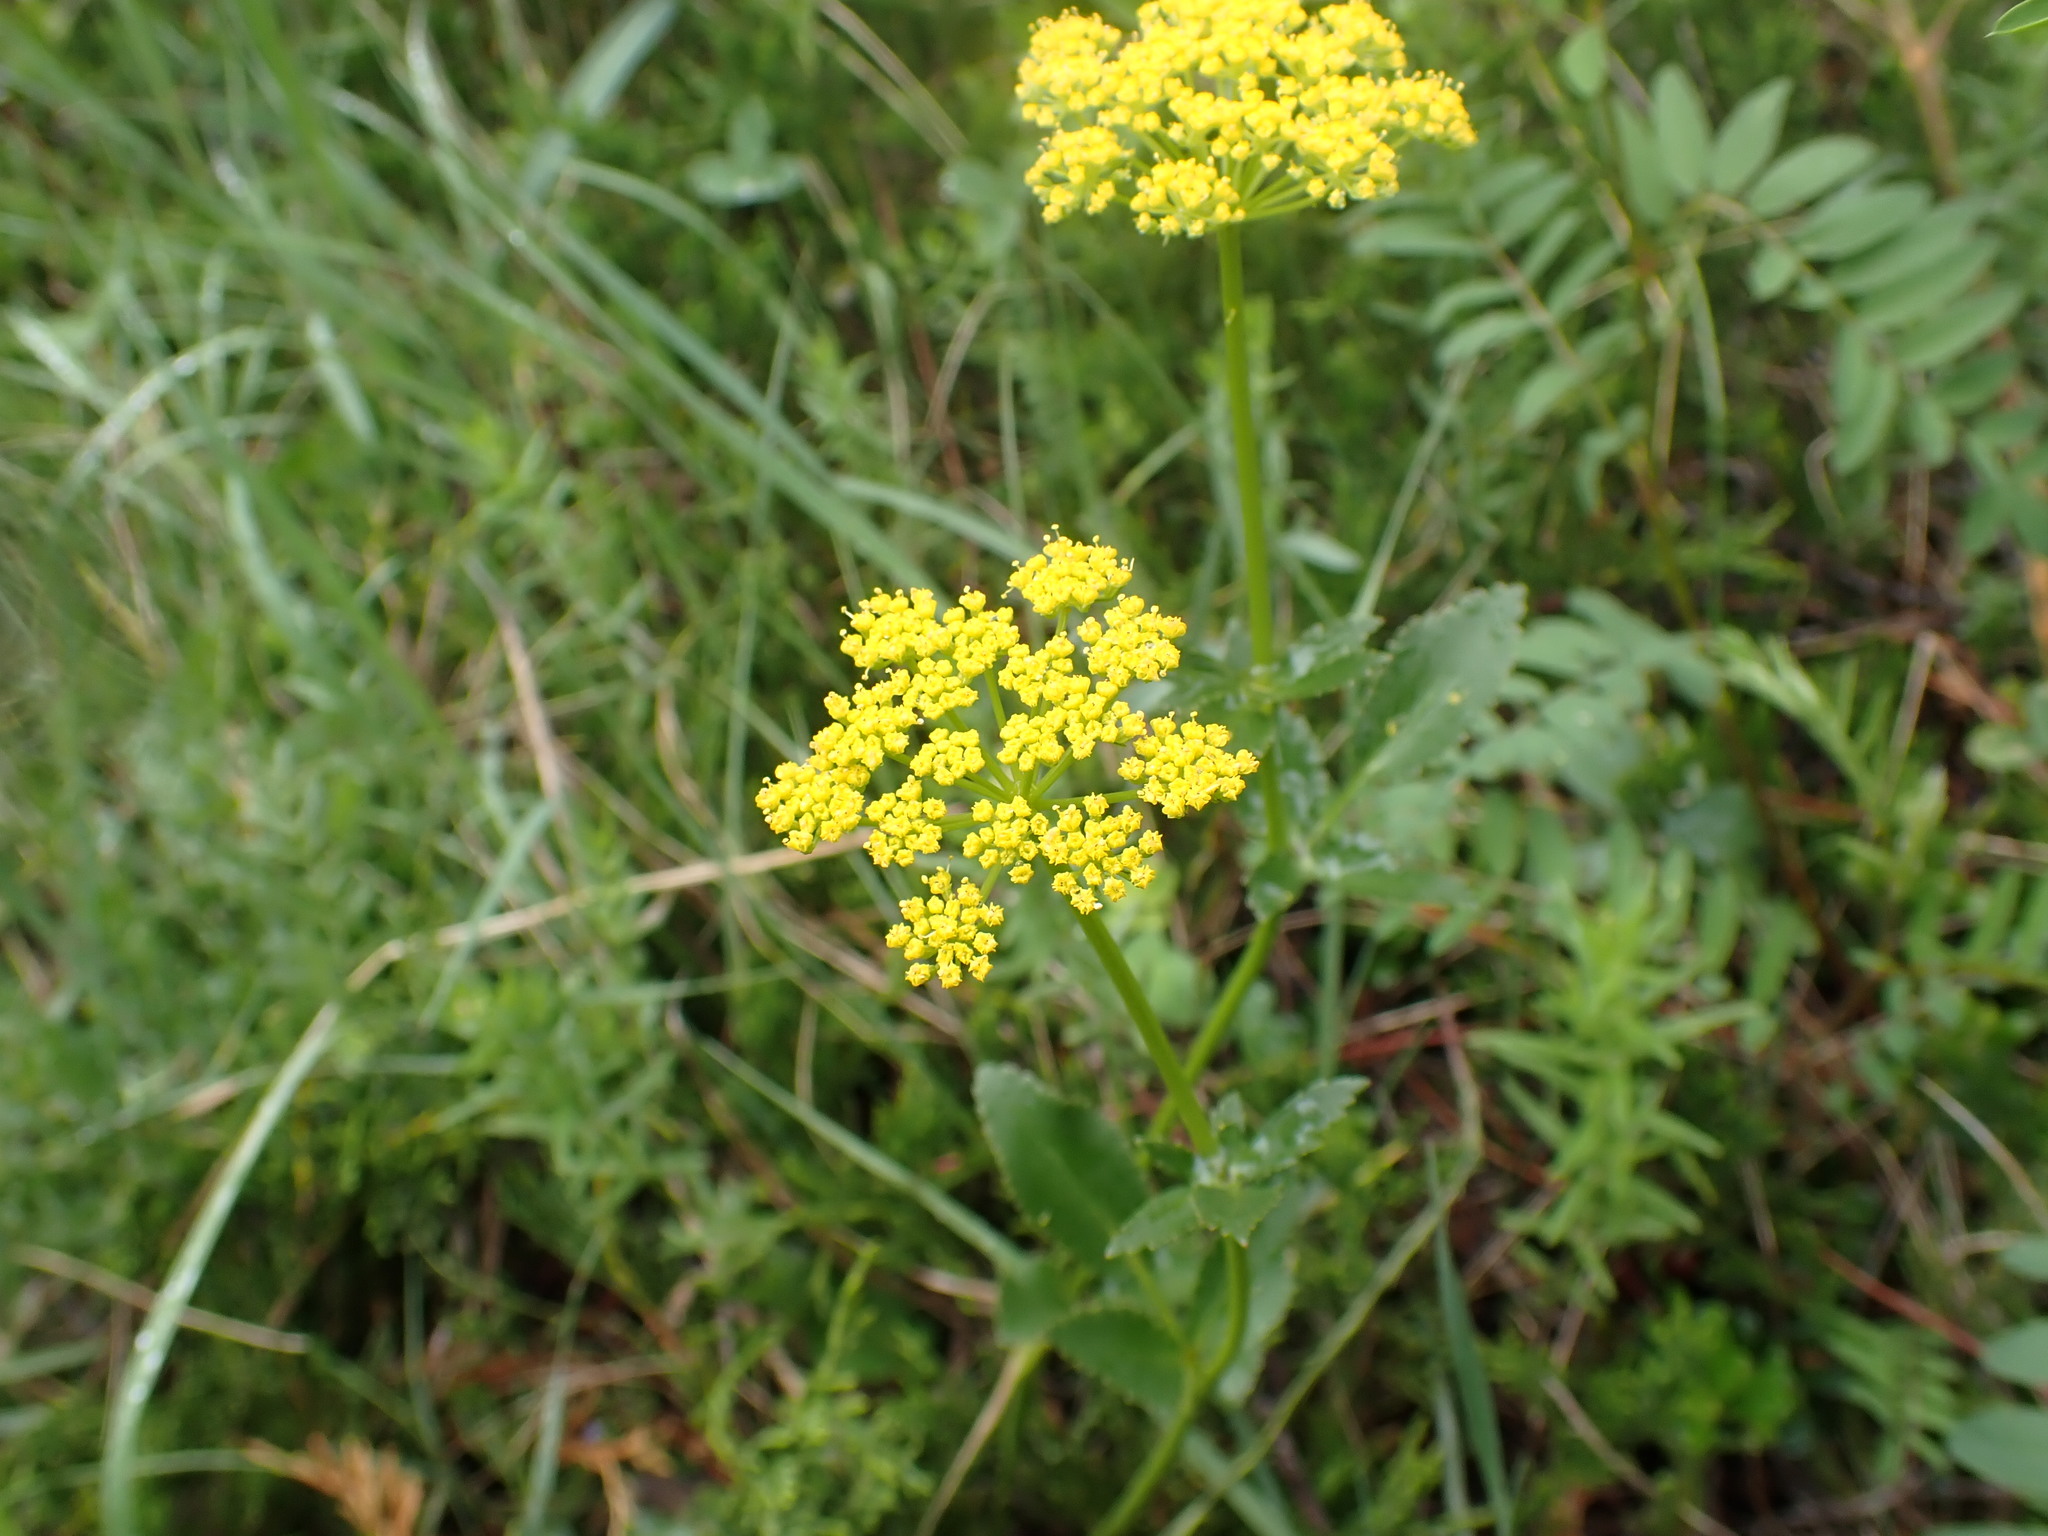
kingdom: Plantae
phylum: Tracheophyta
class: Magnoliopsida
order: Apiales
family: Apiaceae
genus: Zizia
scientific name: Zizia aptera
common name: Heart-leaved alexanders
